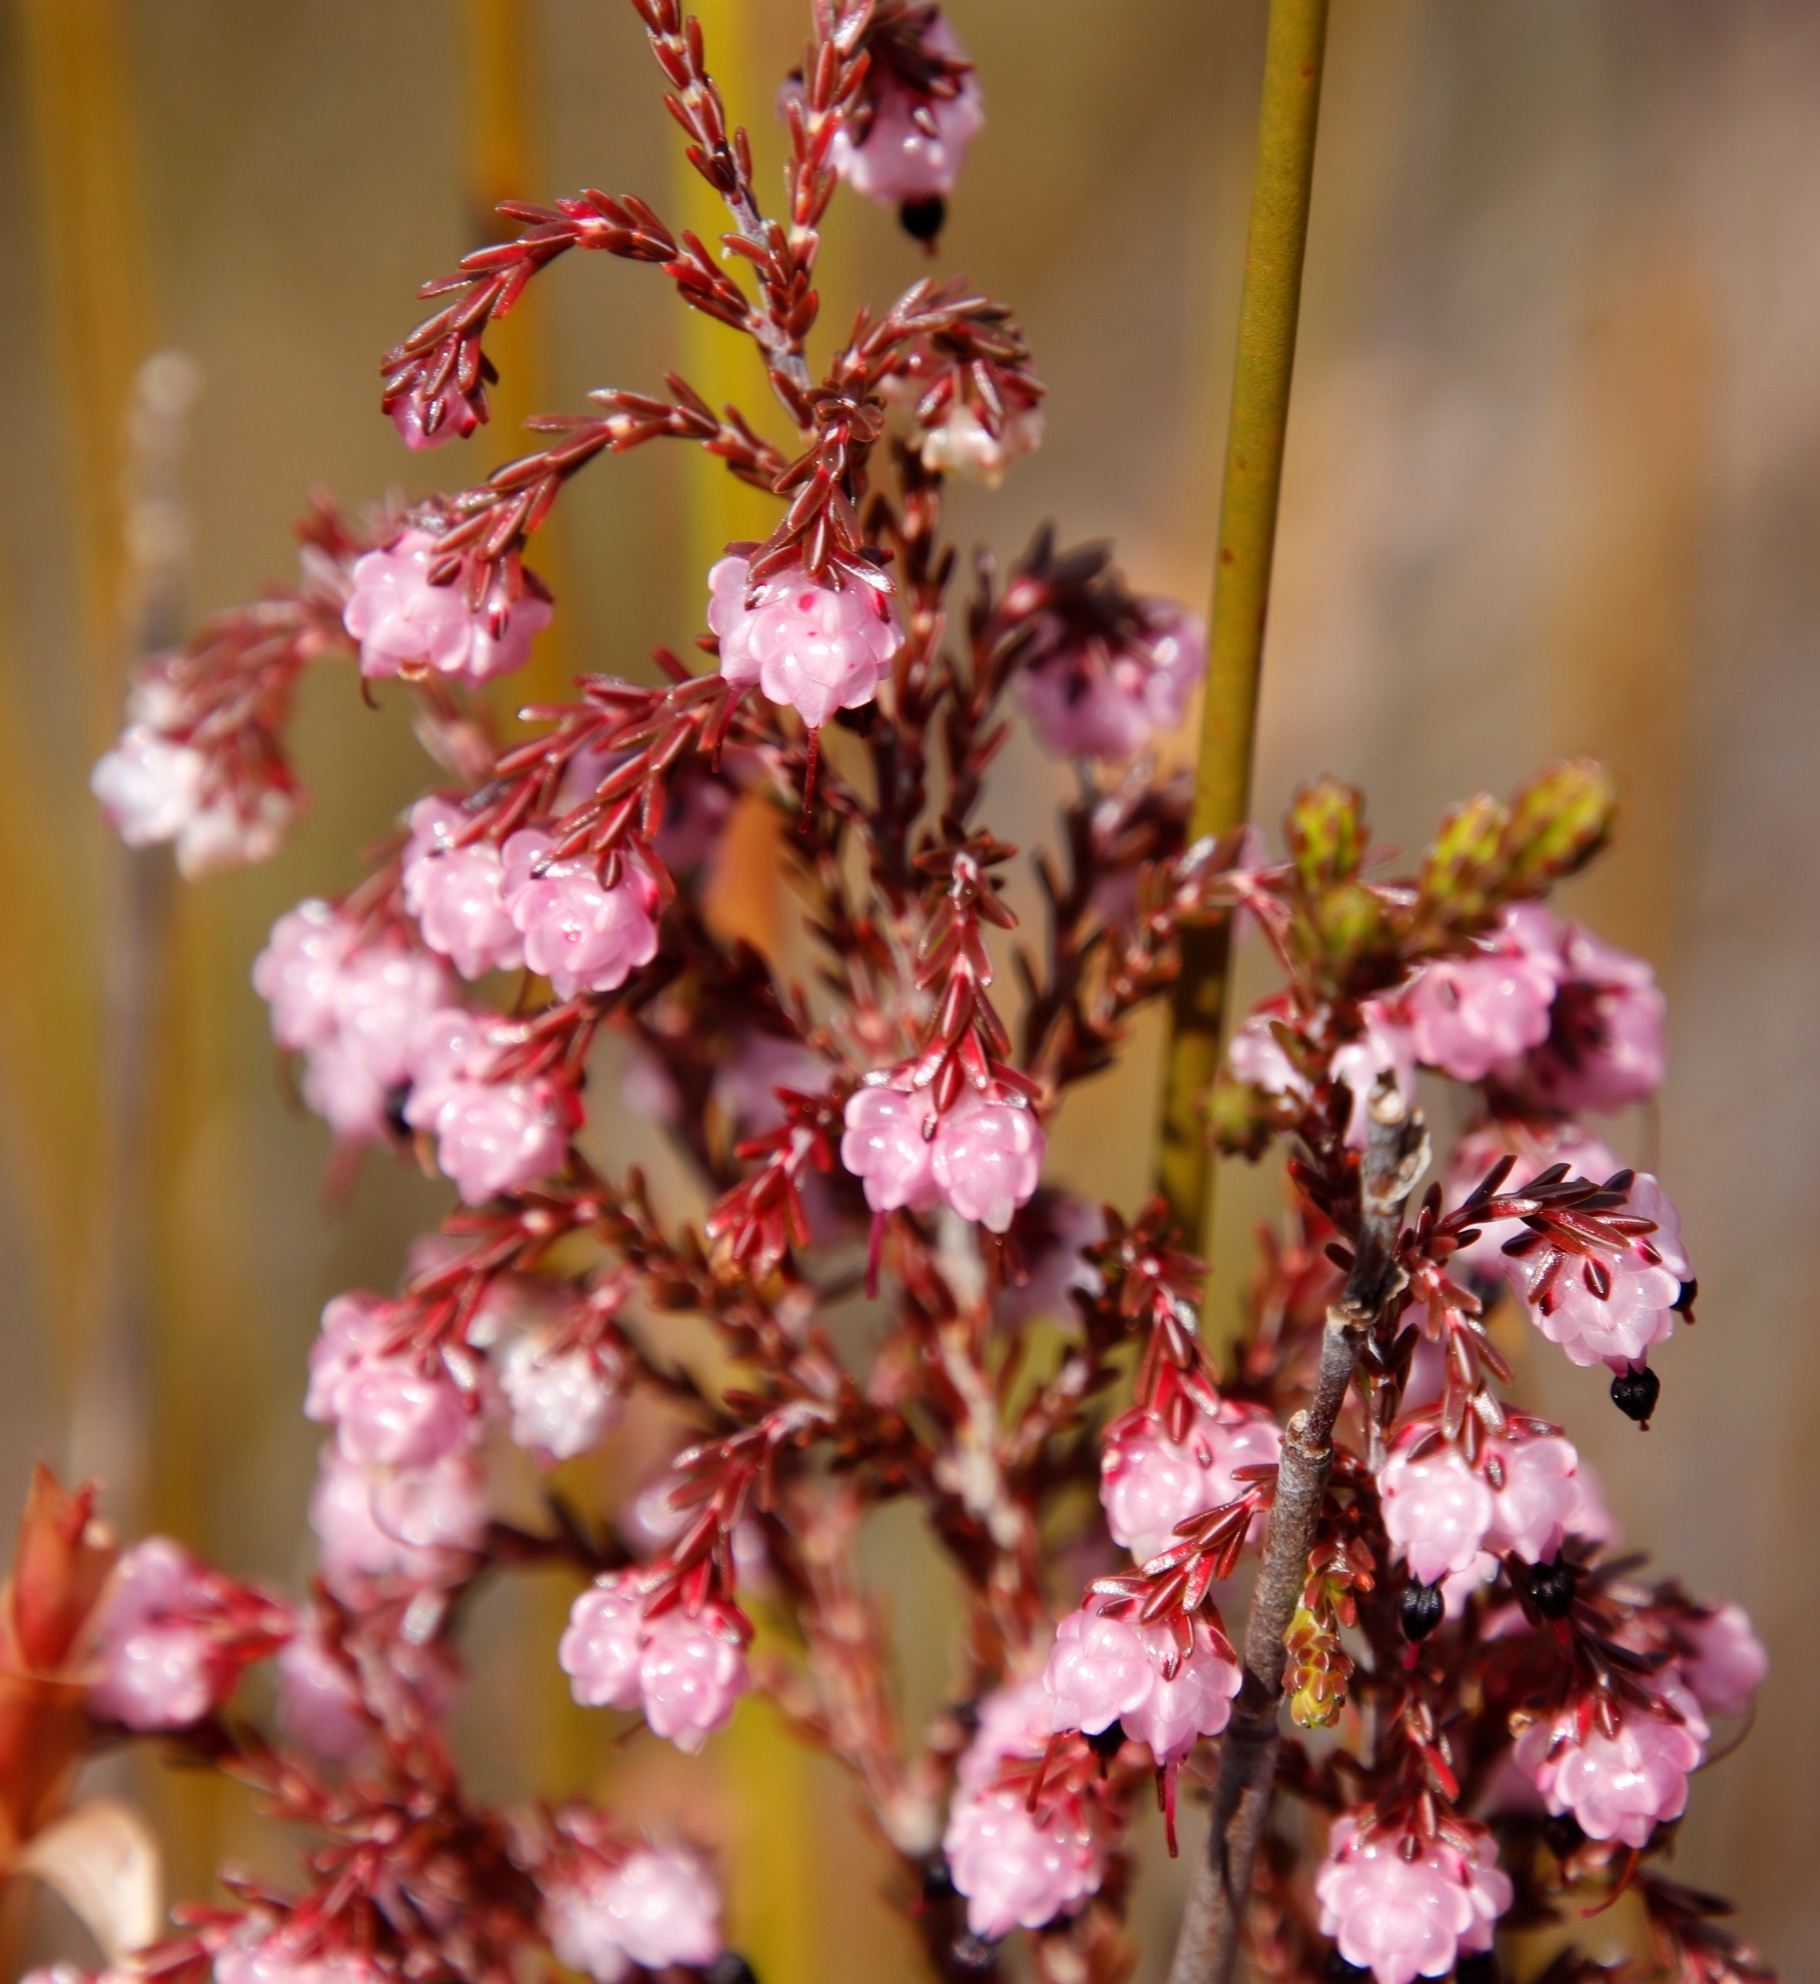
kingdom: Plantae
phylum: Tracheophyta
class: Magnoliopsida
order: Ericales
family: Ericaceae
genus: Erica
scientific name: Erica spumosa
